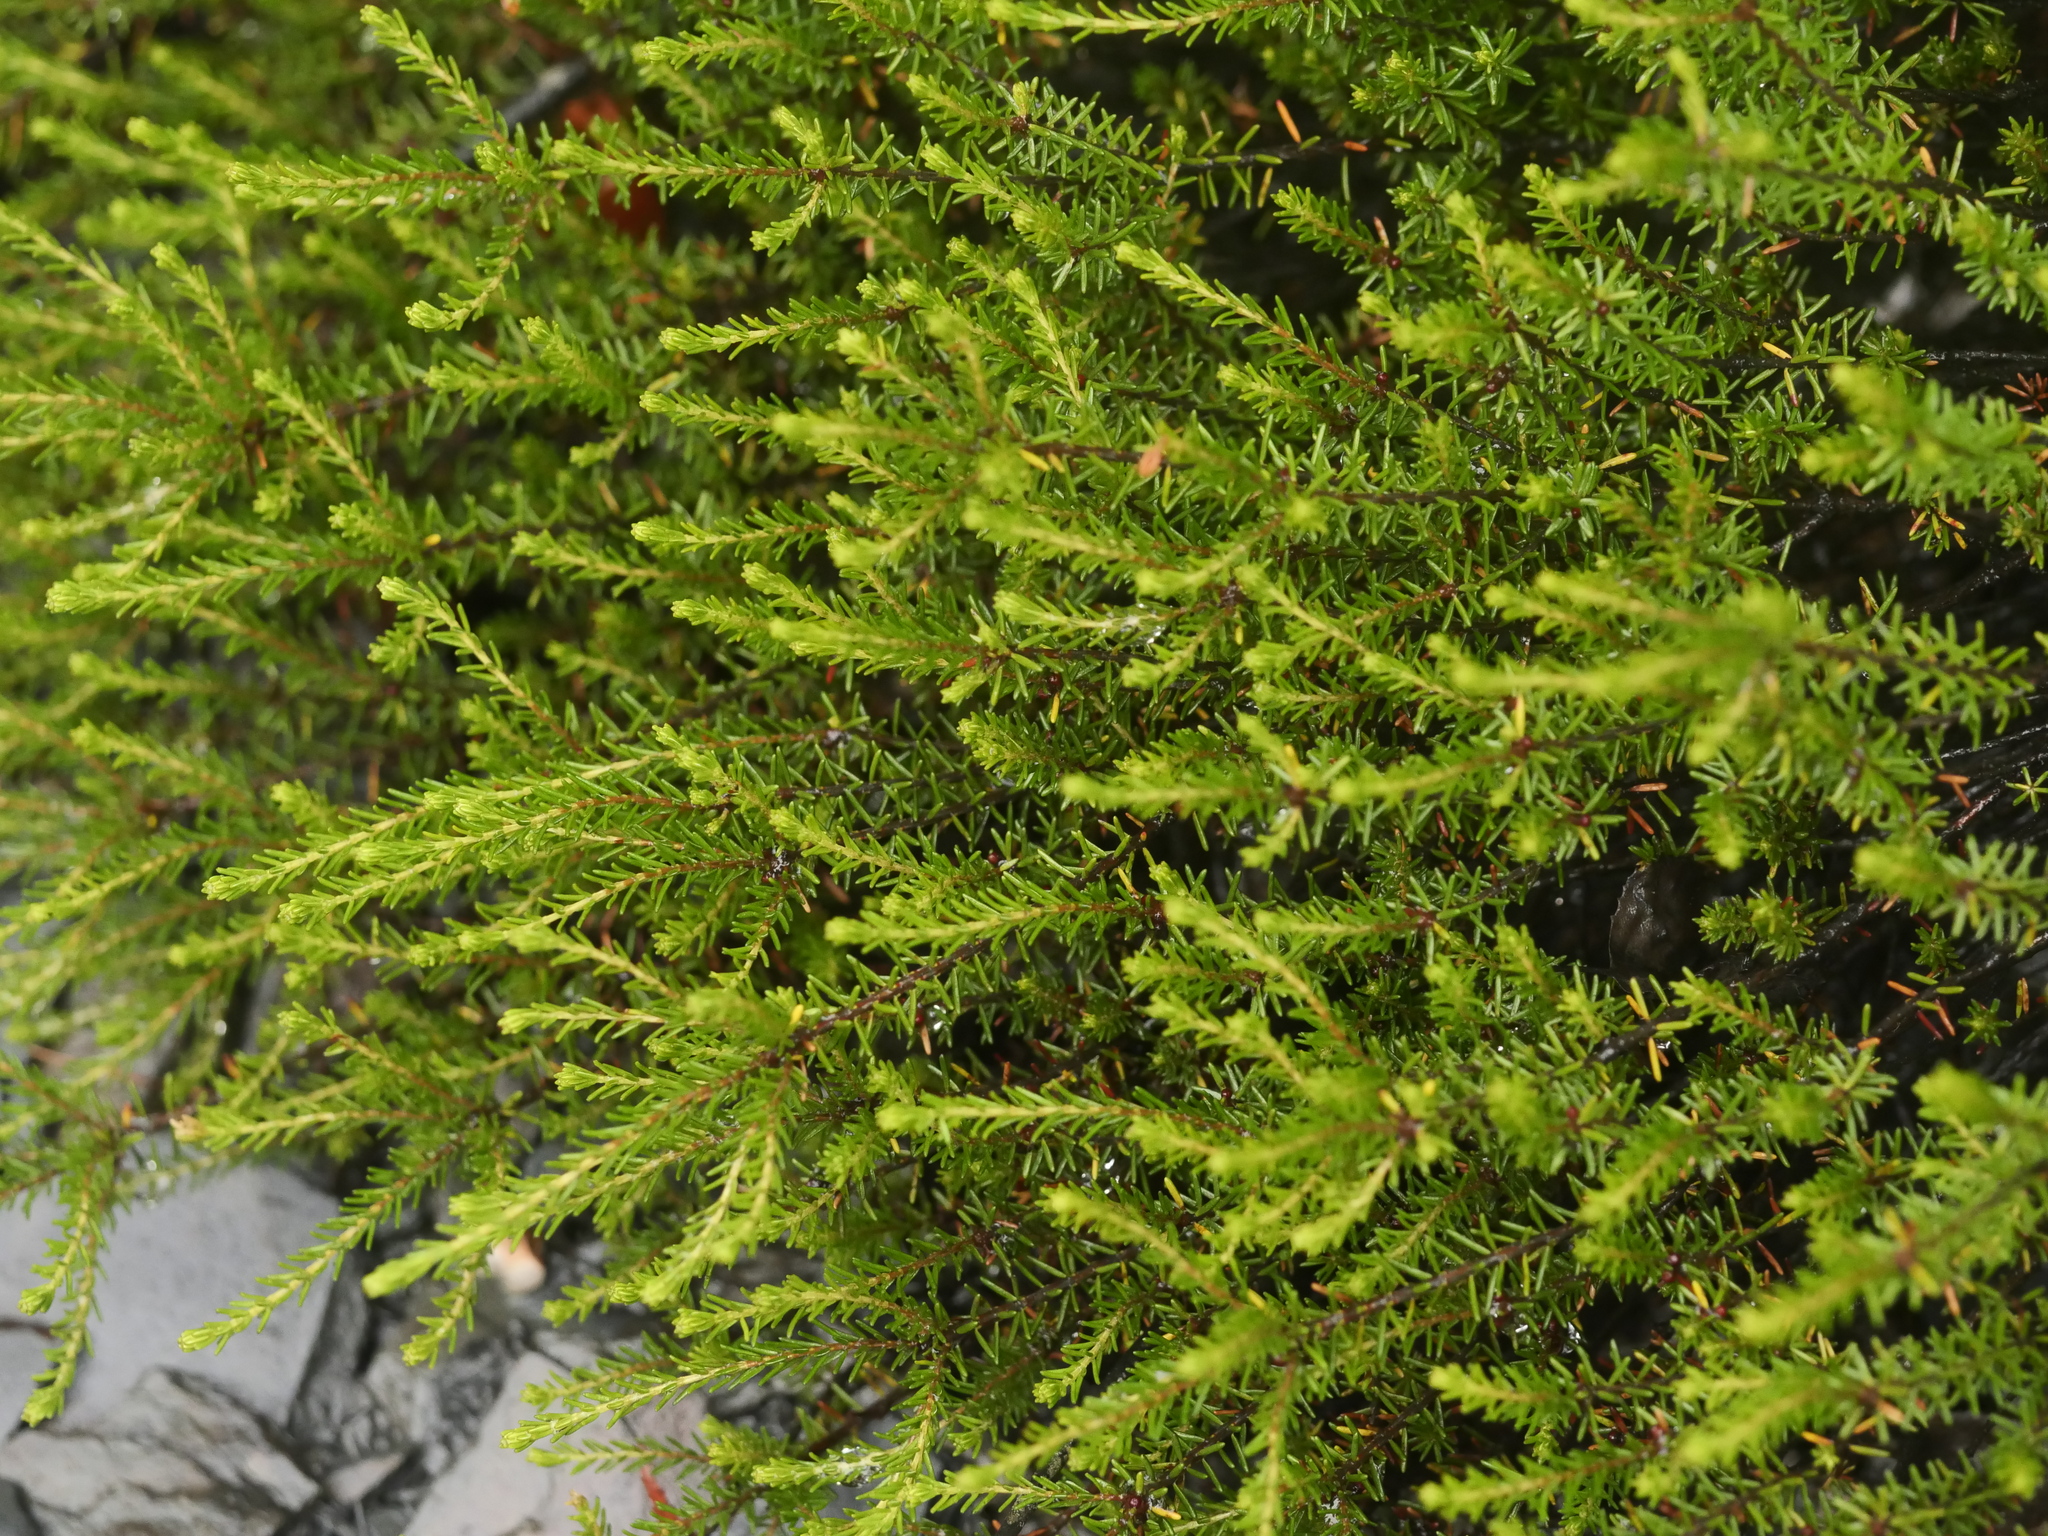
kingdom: Plantae
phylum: Tracheophyta
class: Magnoliopsida
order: Ericales
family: Ericaceae
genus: Corema
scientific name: Corema conradii
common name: Broom-crowberry
